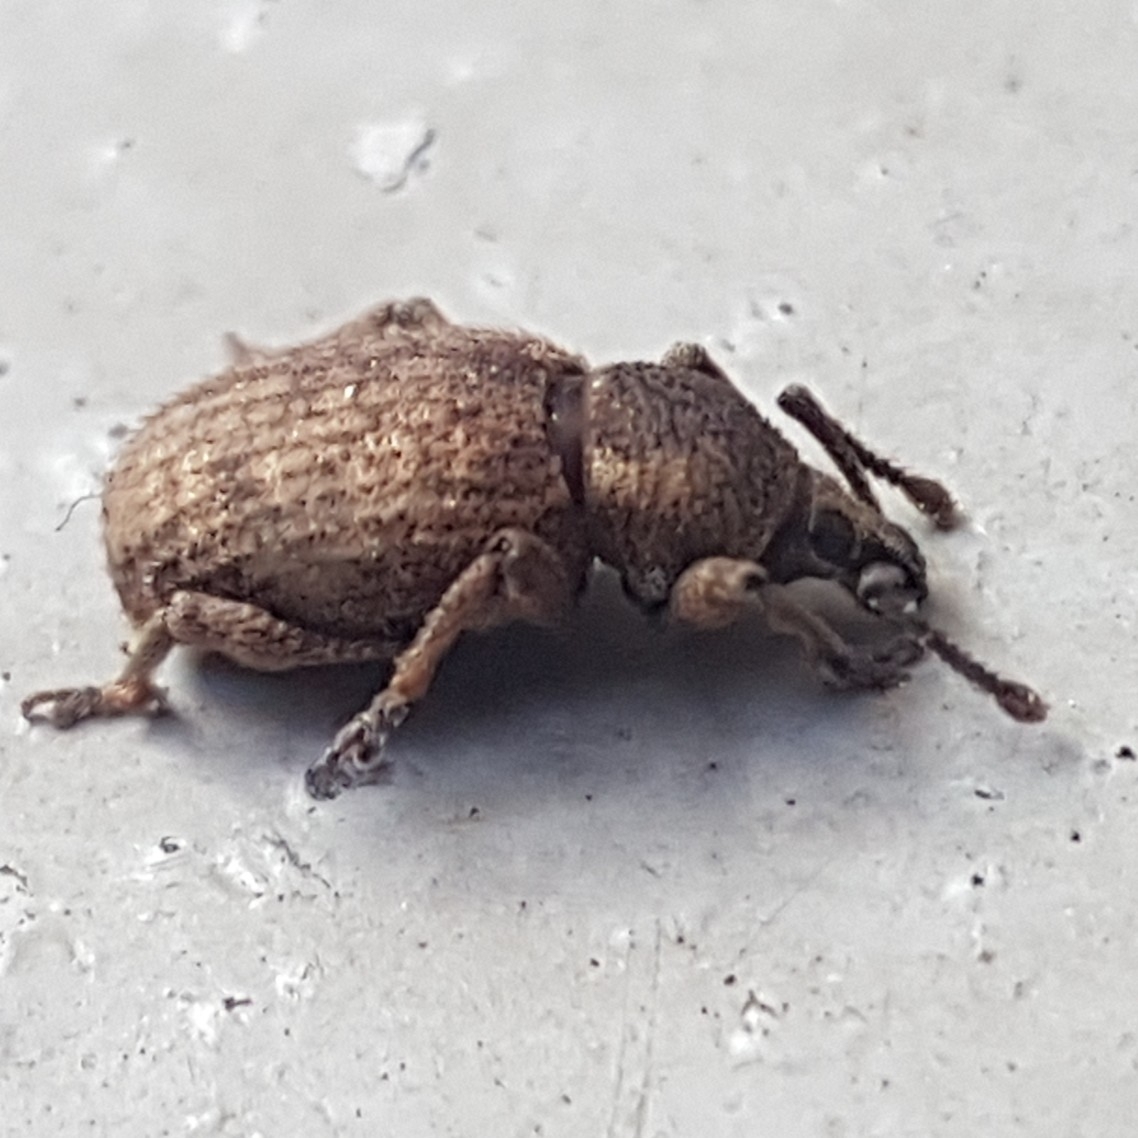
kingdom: Animalia
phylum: Arthropoda
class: Insecta
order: Coleoptera
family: Curculionidae
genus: Otiorhynchus
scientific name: Otiorhynchus singularis
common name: Clay-coloured weevil
